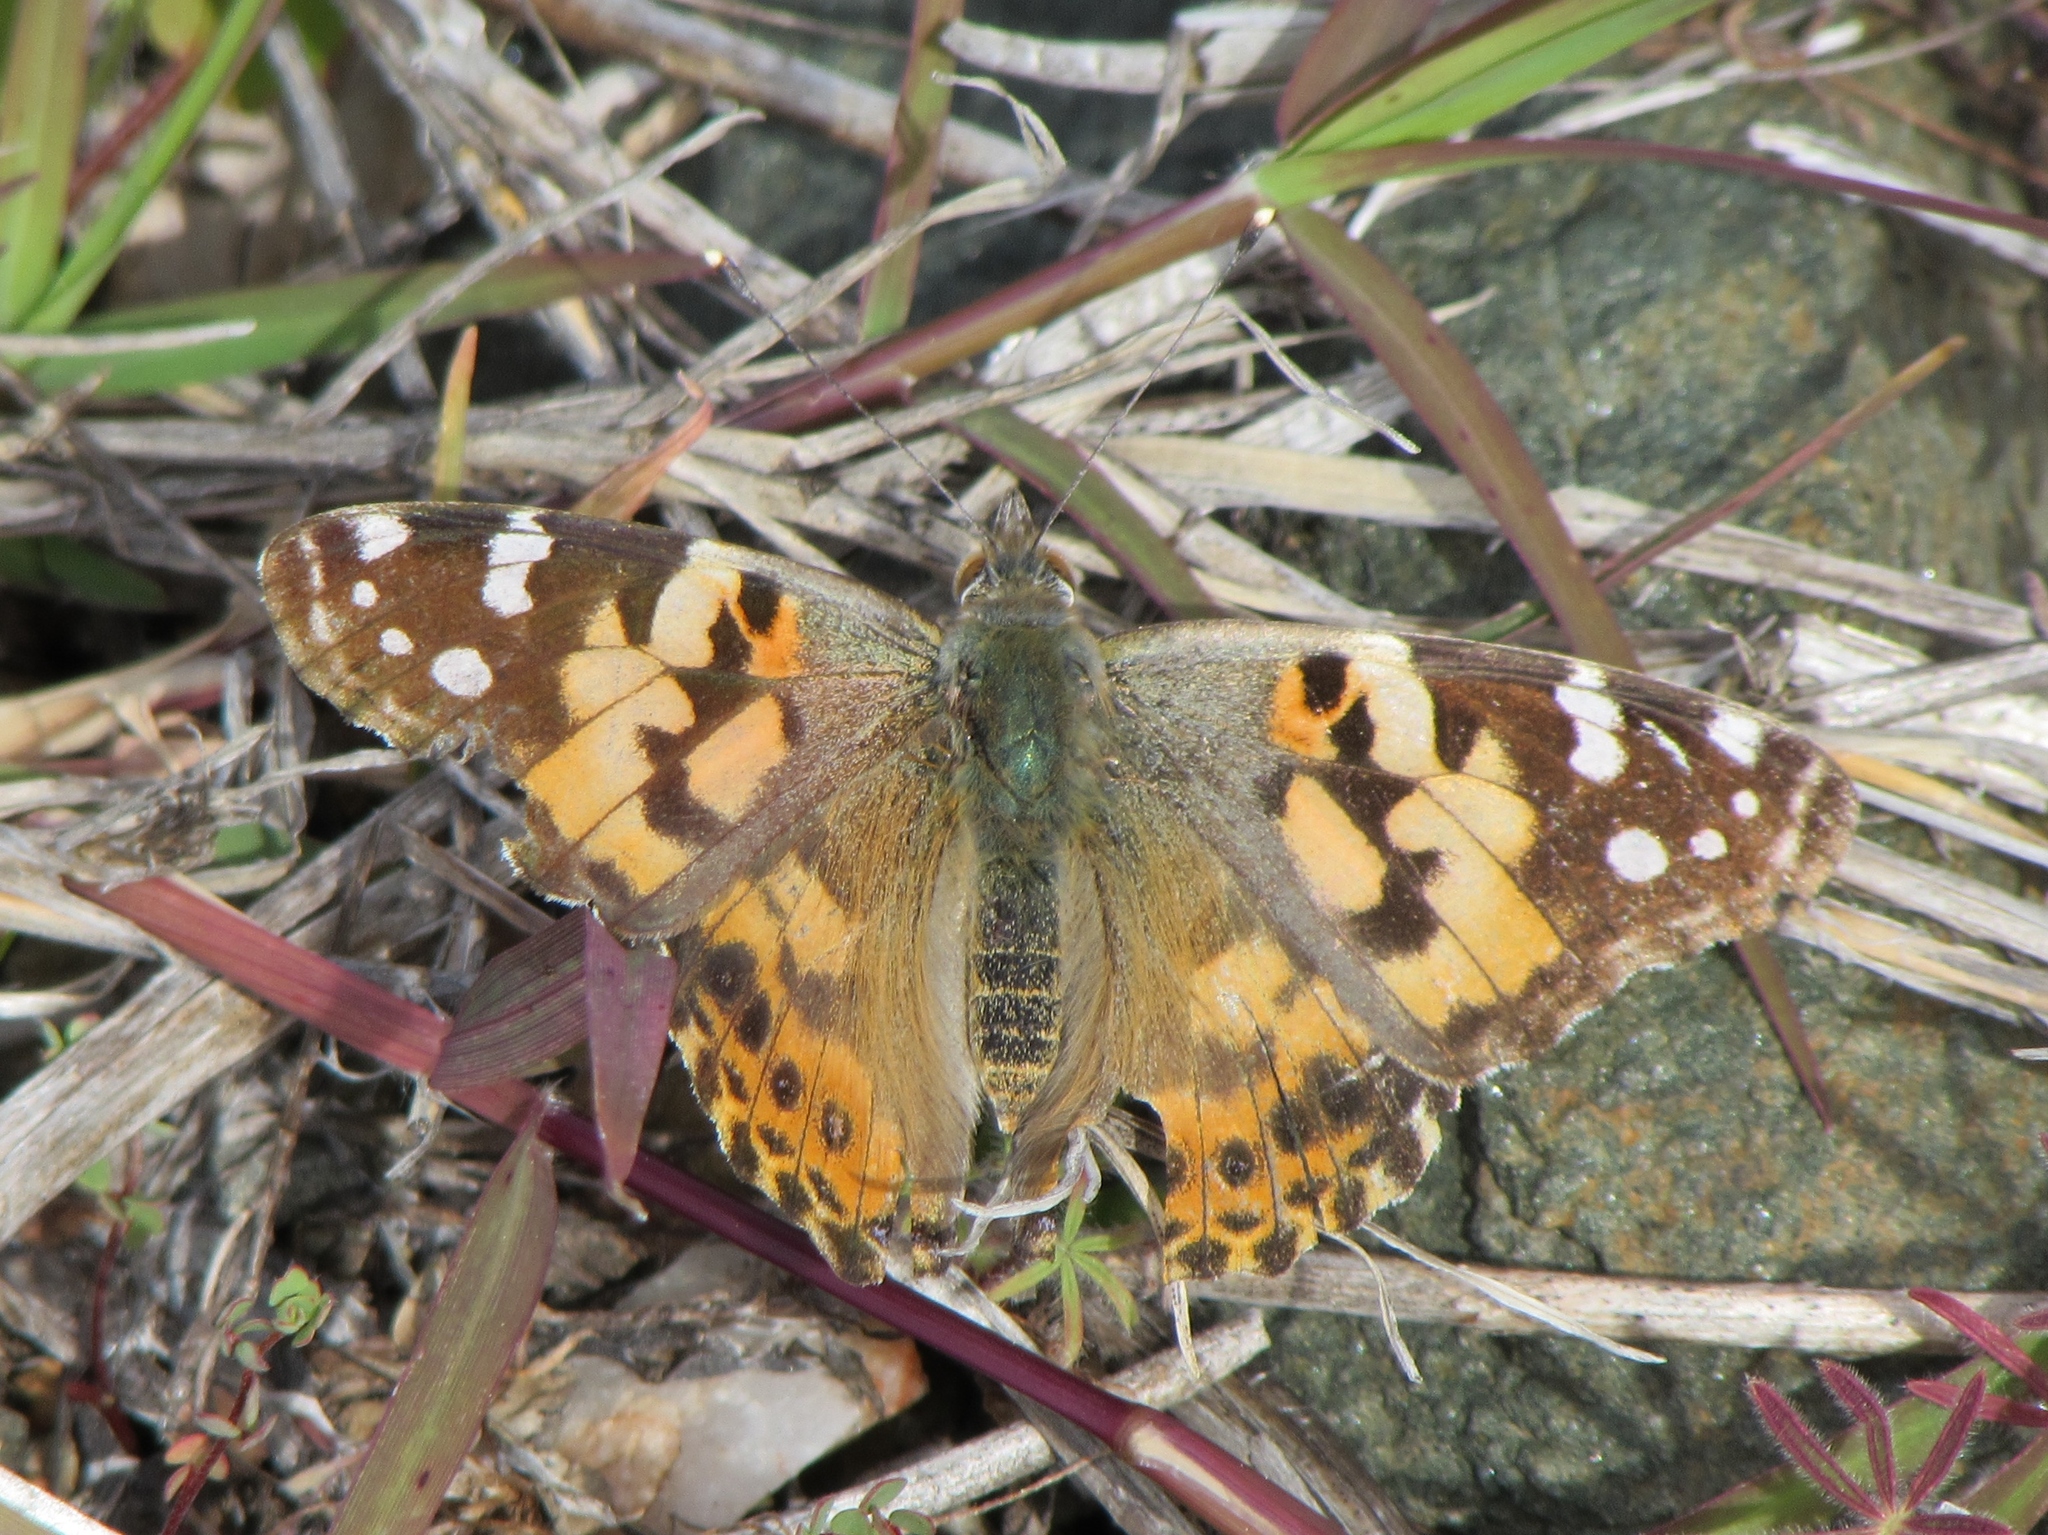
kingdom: Animalia
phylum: Arthropoda
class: Insecta
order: Lepidoptera
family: Nymphalidae
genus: Vanessa
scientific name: Vanessa cardui
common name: Painted lady
